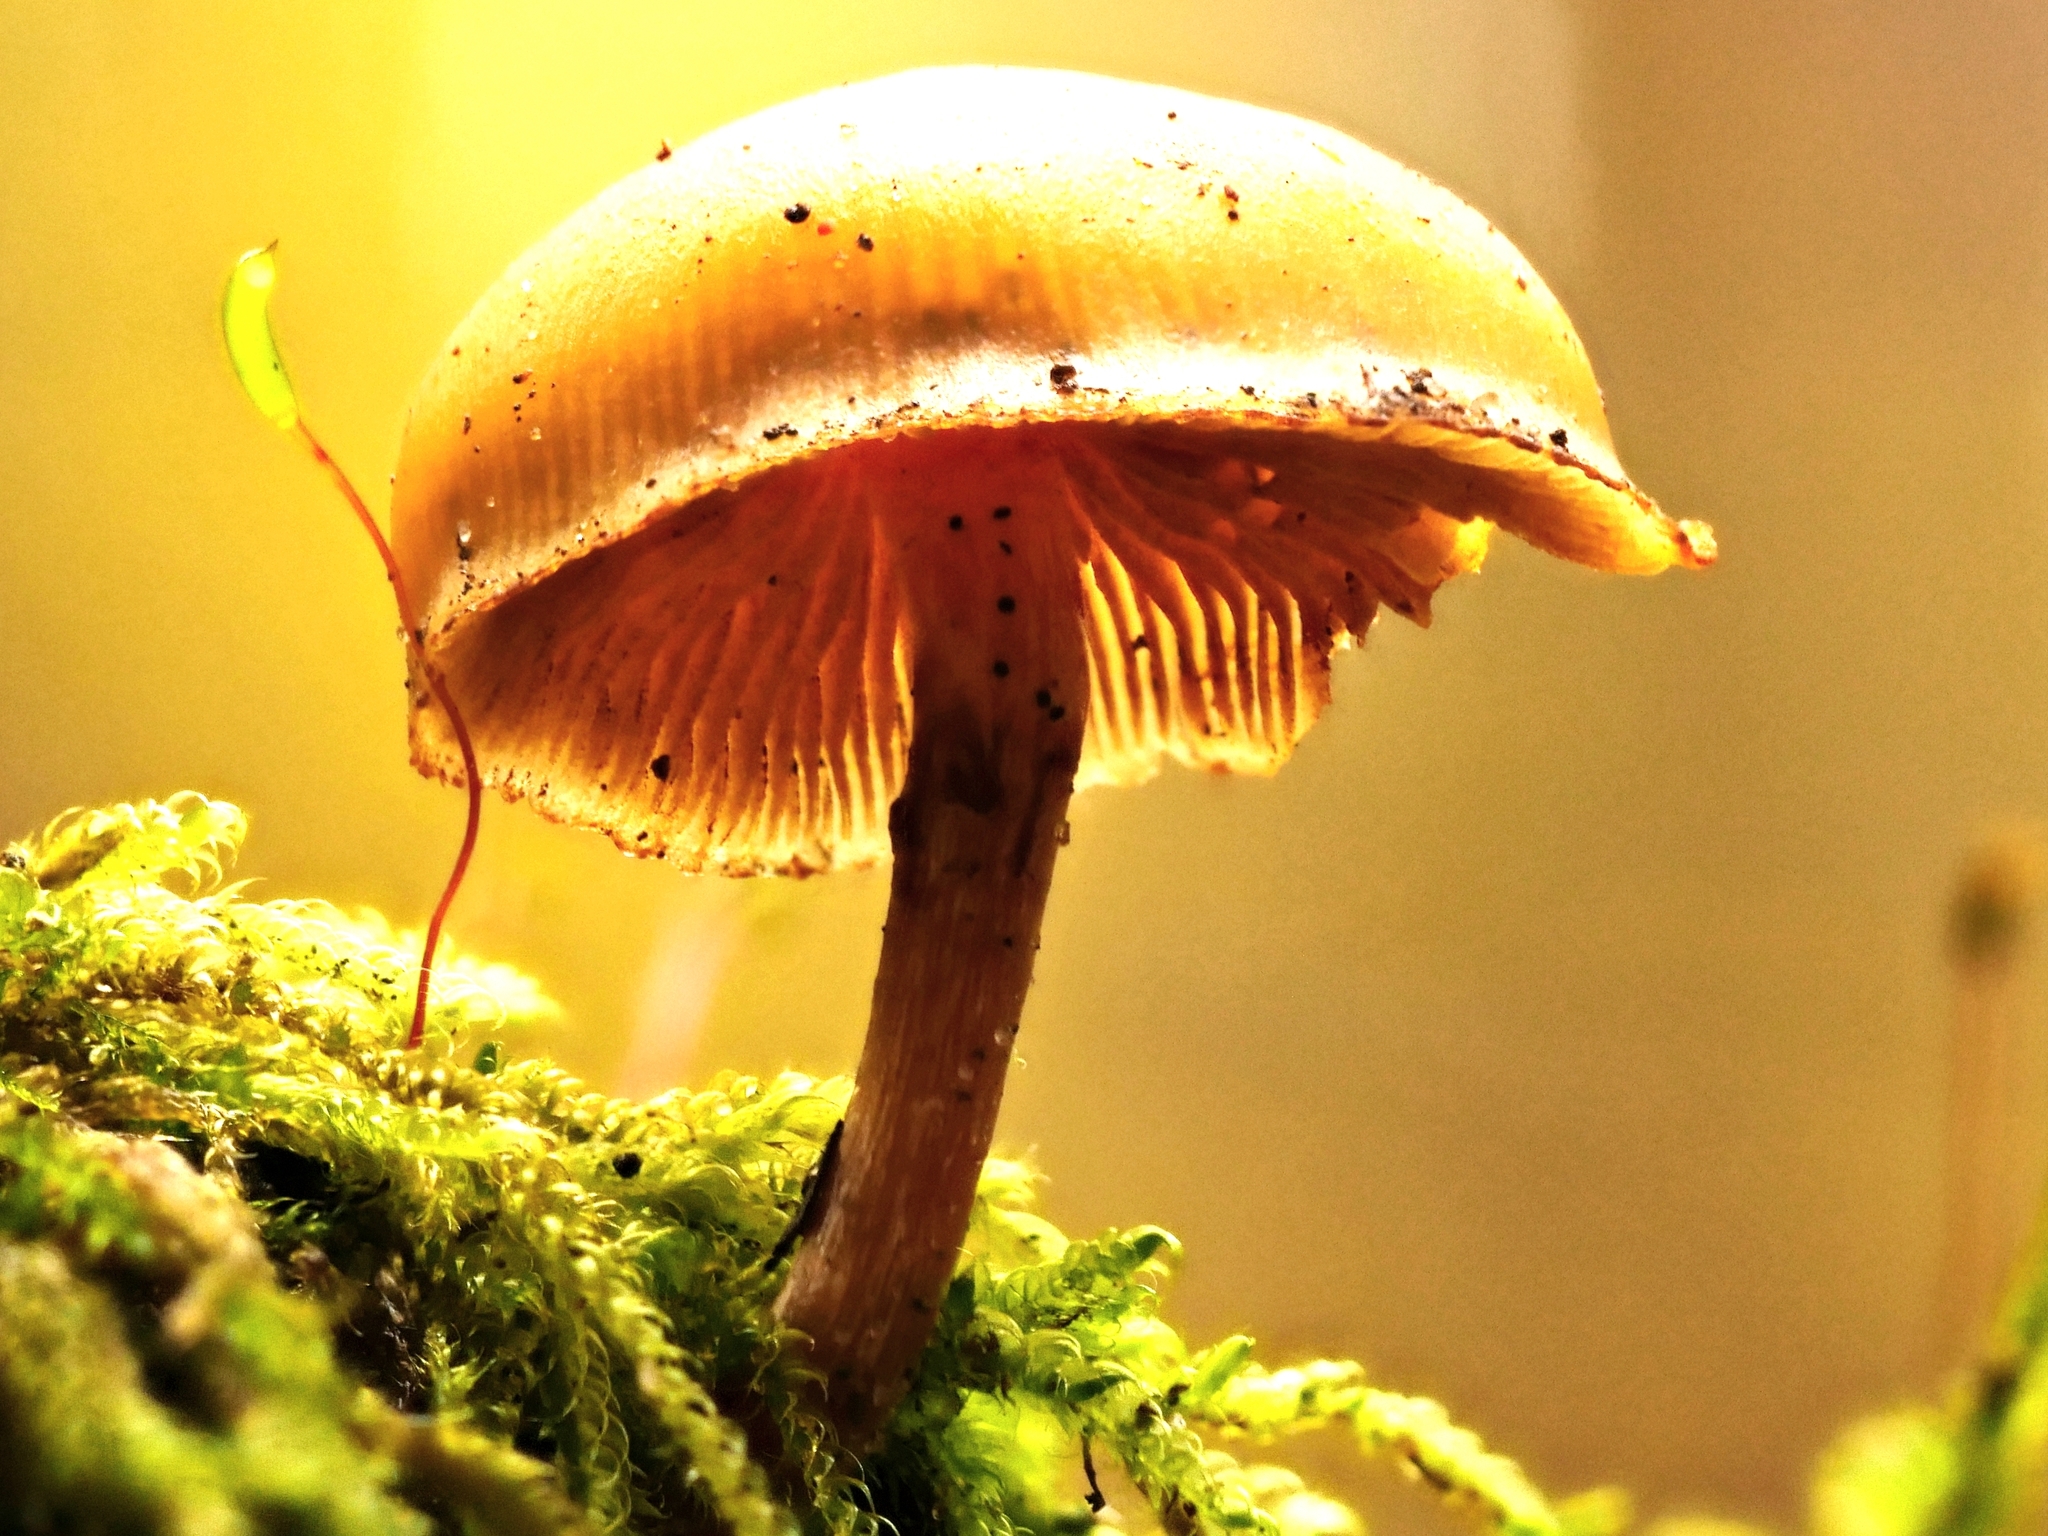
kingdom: Fungi
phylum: Basidiomycota
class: Agaricomycetes
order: Agaricales
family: Hymenogastraceae
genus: Galerina
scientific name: Galerina marginata
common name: Funeral bell
